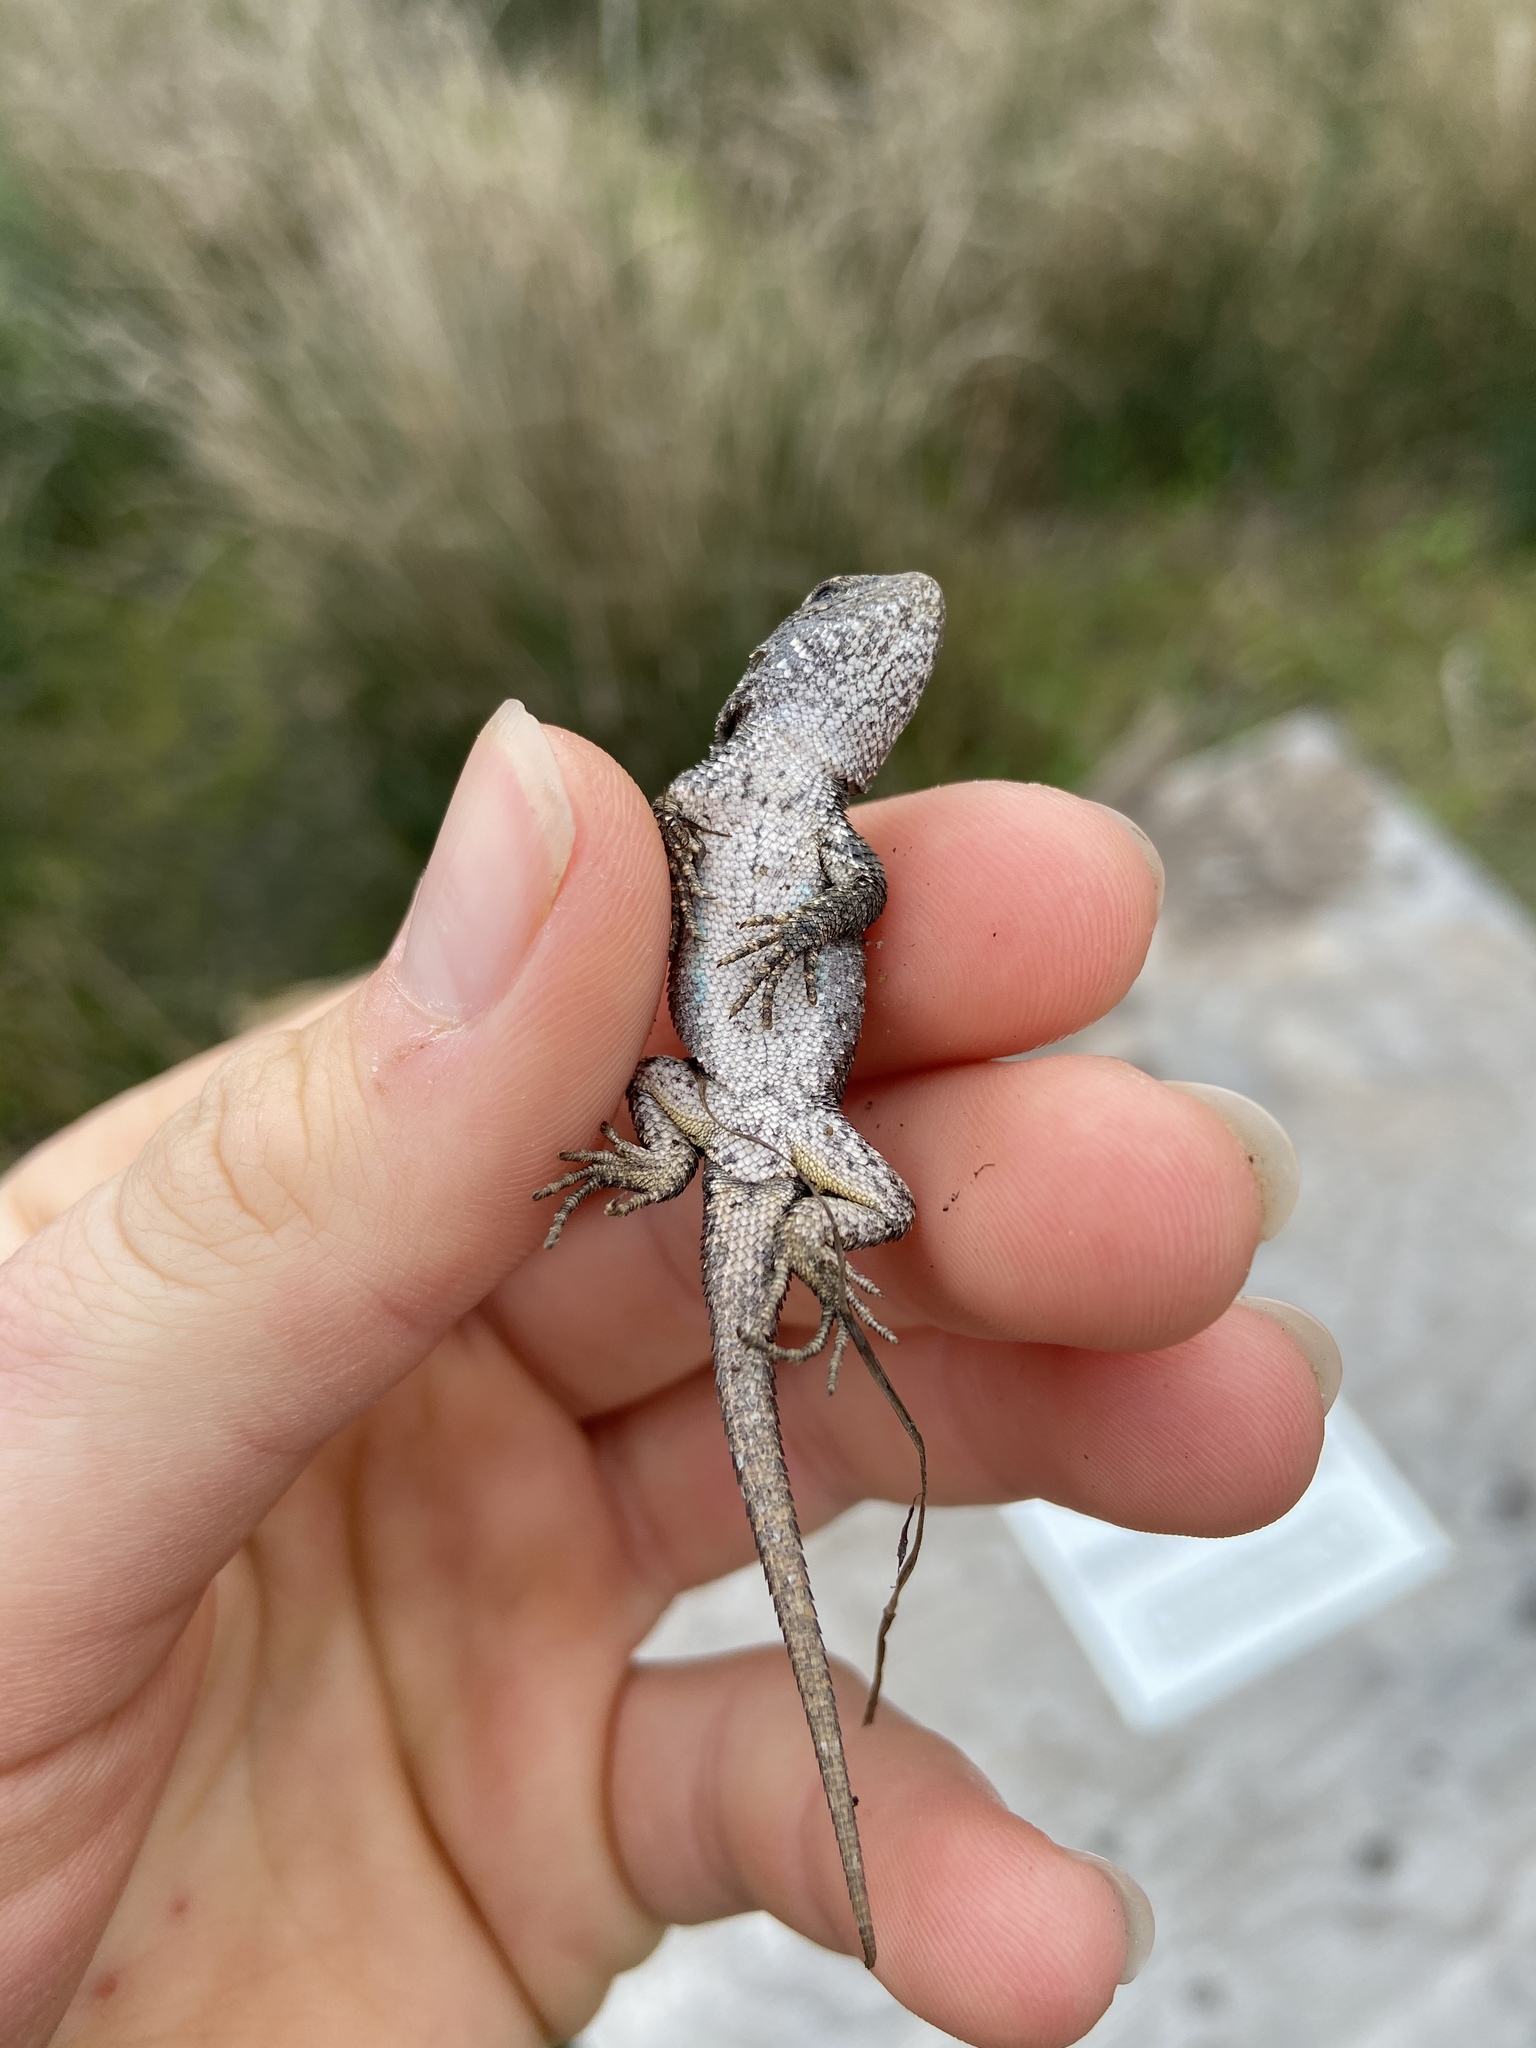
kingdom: Animalia
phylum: Chordata
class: Squamata
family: Phrynosomatidae
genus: Sceloporus
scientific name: Sceloporus occidentalis
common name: Western fence lizard
